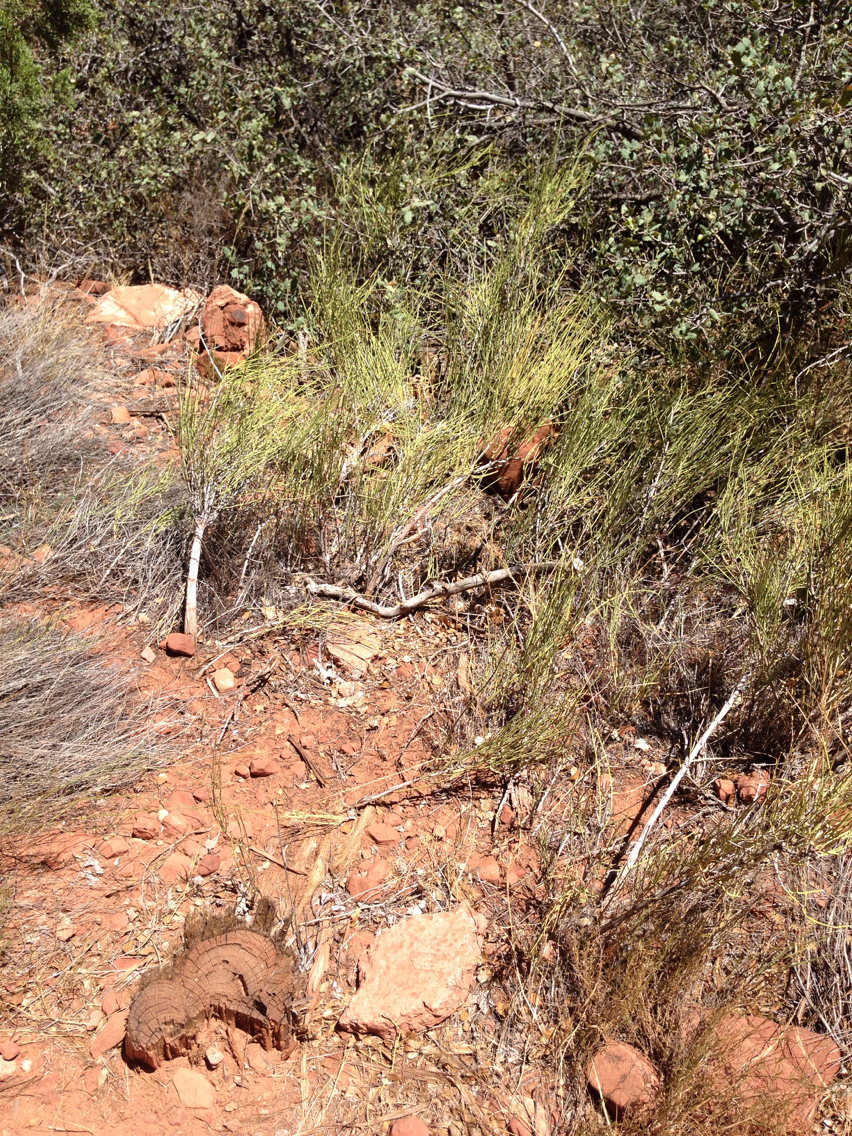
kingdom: Plantae
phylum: Tracheophyta
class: Gnetopsida
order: Ephedrales
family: Ephedraceae
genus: Ephedra
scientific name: Ephedra viridis
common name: Green ephedra
